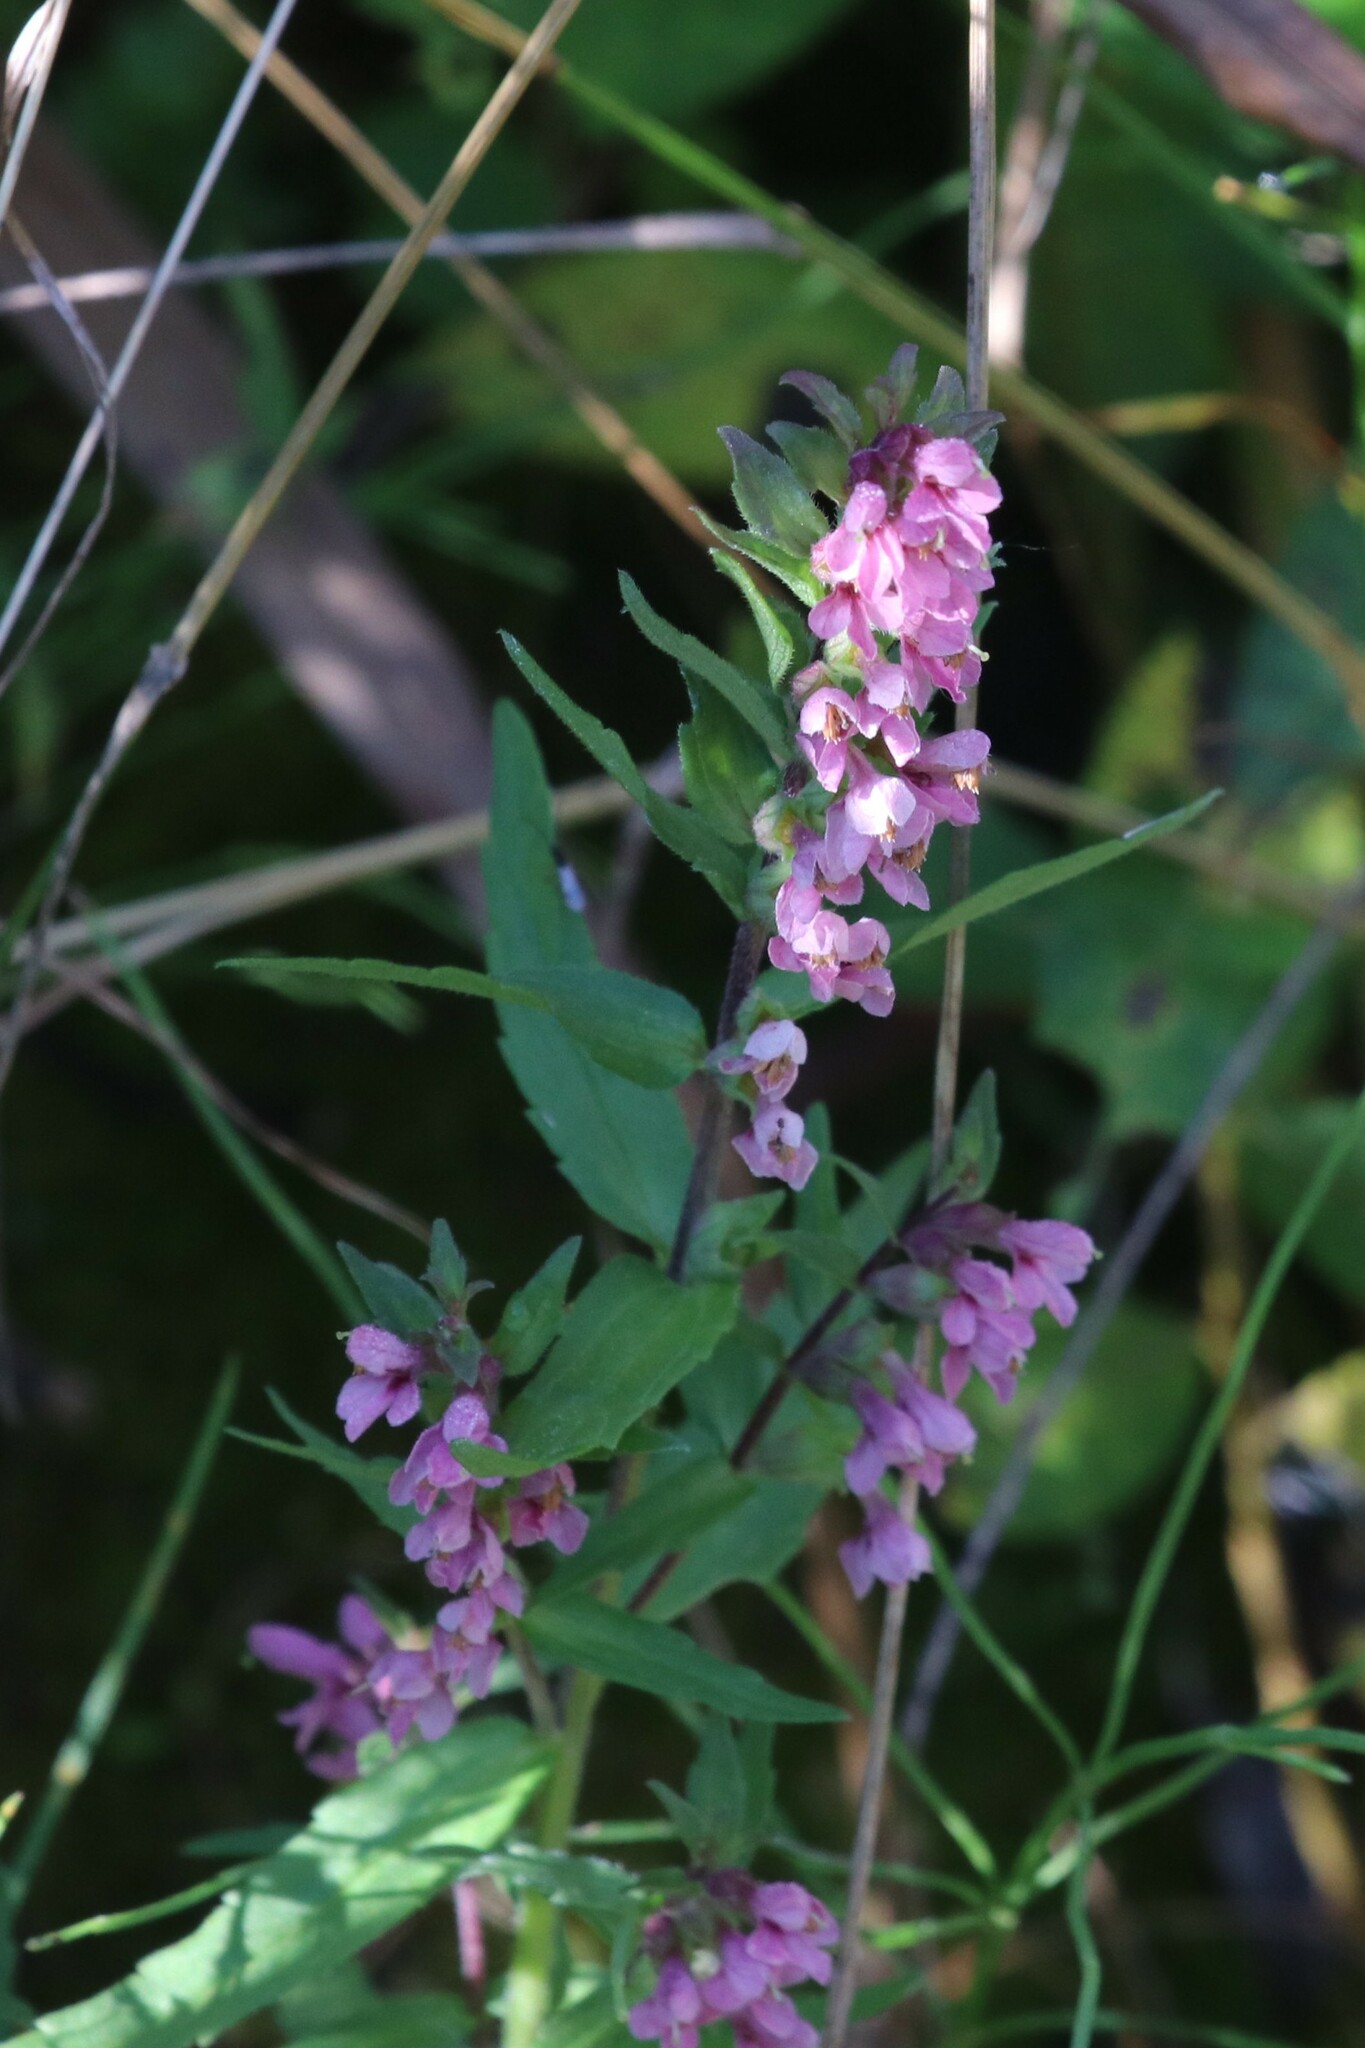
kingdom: Plantae
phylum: Tracheophyta
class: Magnoliopsida
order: Lamiales
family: Orobanchaceae
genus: Odontites
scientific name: Odontites vulgaris
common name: Broomrape
